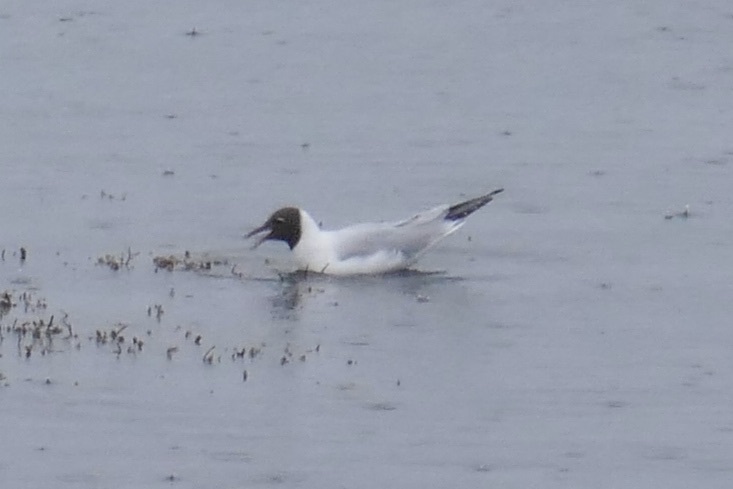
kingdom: Animalia
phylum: Chordata
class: Aves
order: Charadriiformes
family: Laridae
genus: Chroicocephalus
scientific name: Chroicocephalus ridibundus
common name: Black-headed gull
